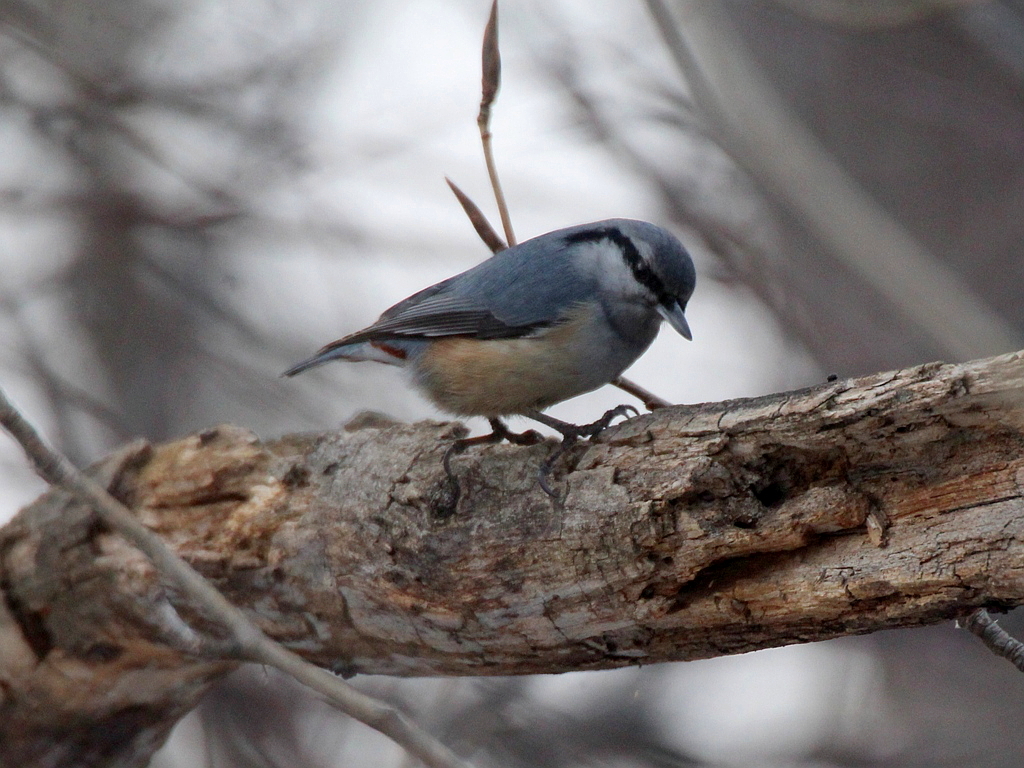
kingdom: Animalia
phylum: Chordata
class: Aves
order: Passeriformes
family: Sittidae
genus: Sitta
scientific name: Sitta europaea
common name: Eurasian nuthatch
